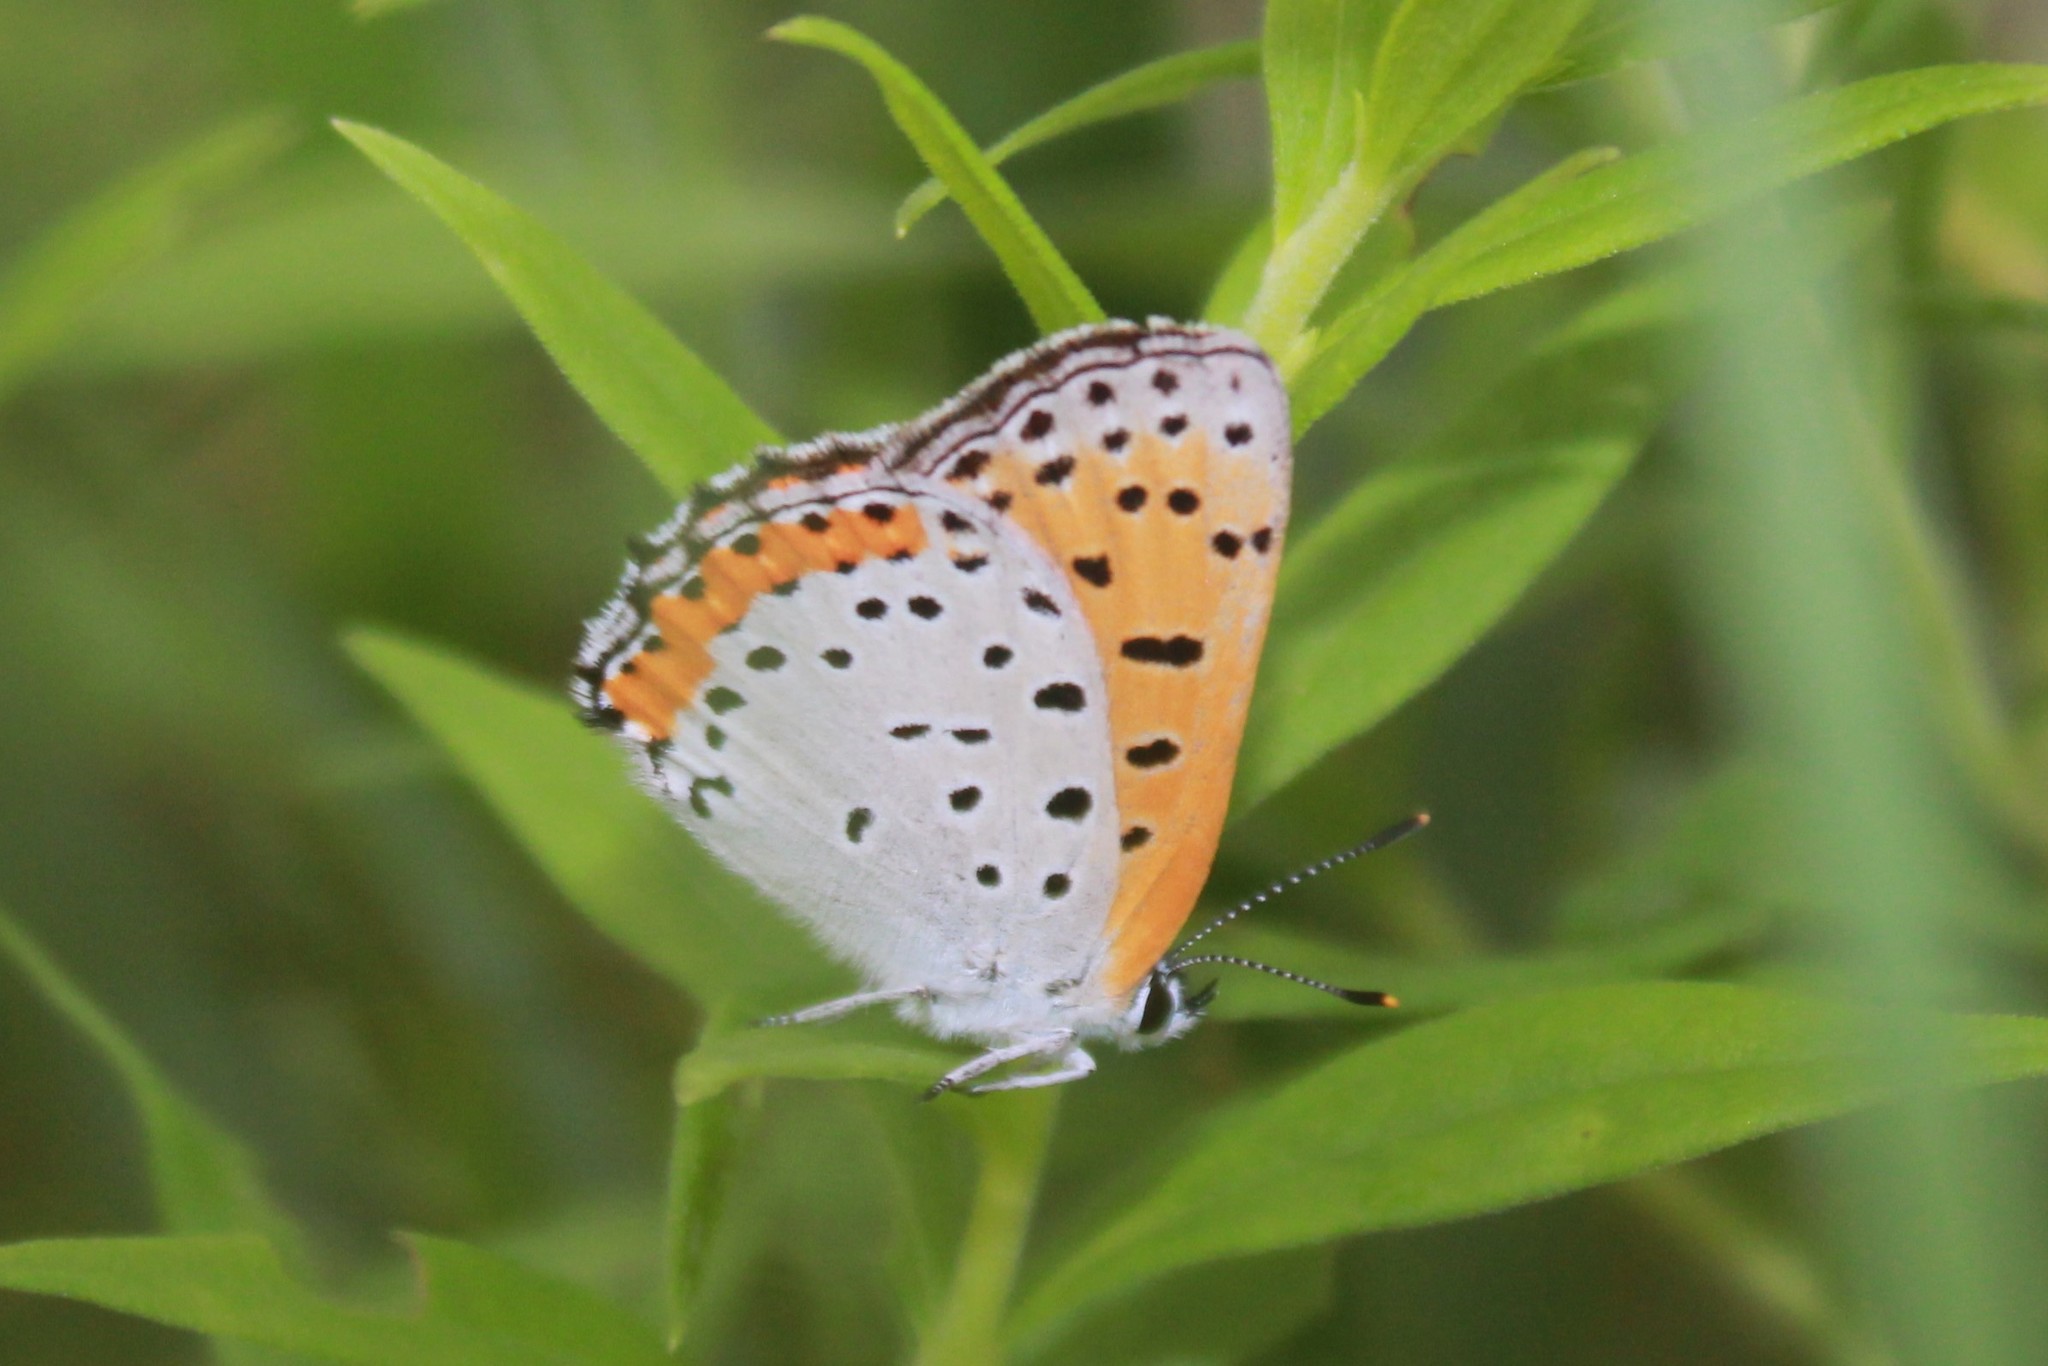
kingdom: Animalia
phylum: Arthropoda
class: Insecta
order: Lepidoptera
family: Lycaenidae
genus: Tharsalea
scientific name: Tharsalea hyllus
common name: Bronze copper
